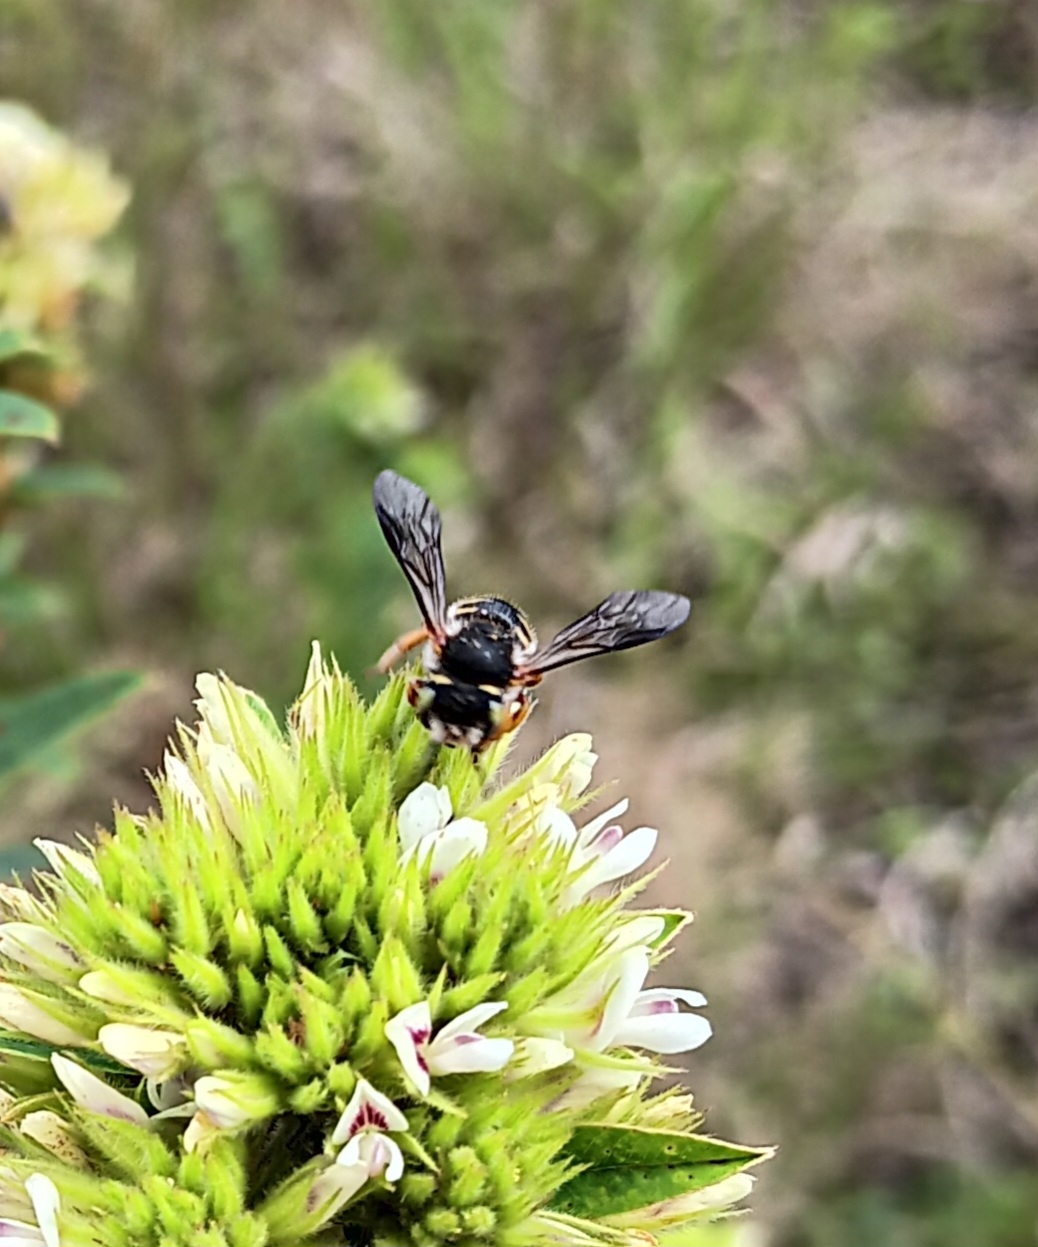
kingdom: Animalia
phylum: Arthropoda
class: Insecta
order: Hymenoptera
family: Megachilidae
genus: Anthidium
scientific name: Anthidium oblongatum
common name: Oblong wool carder bee
